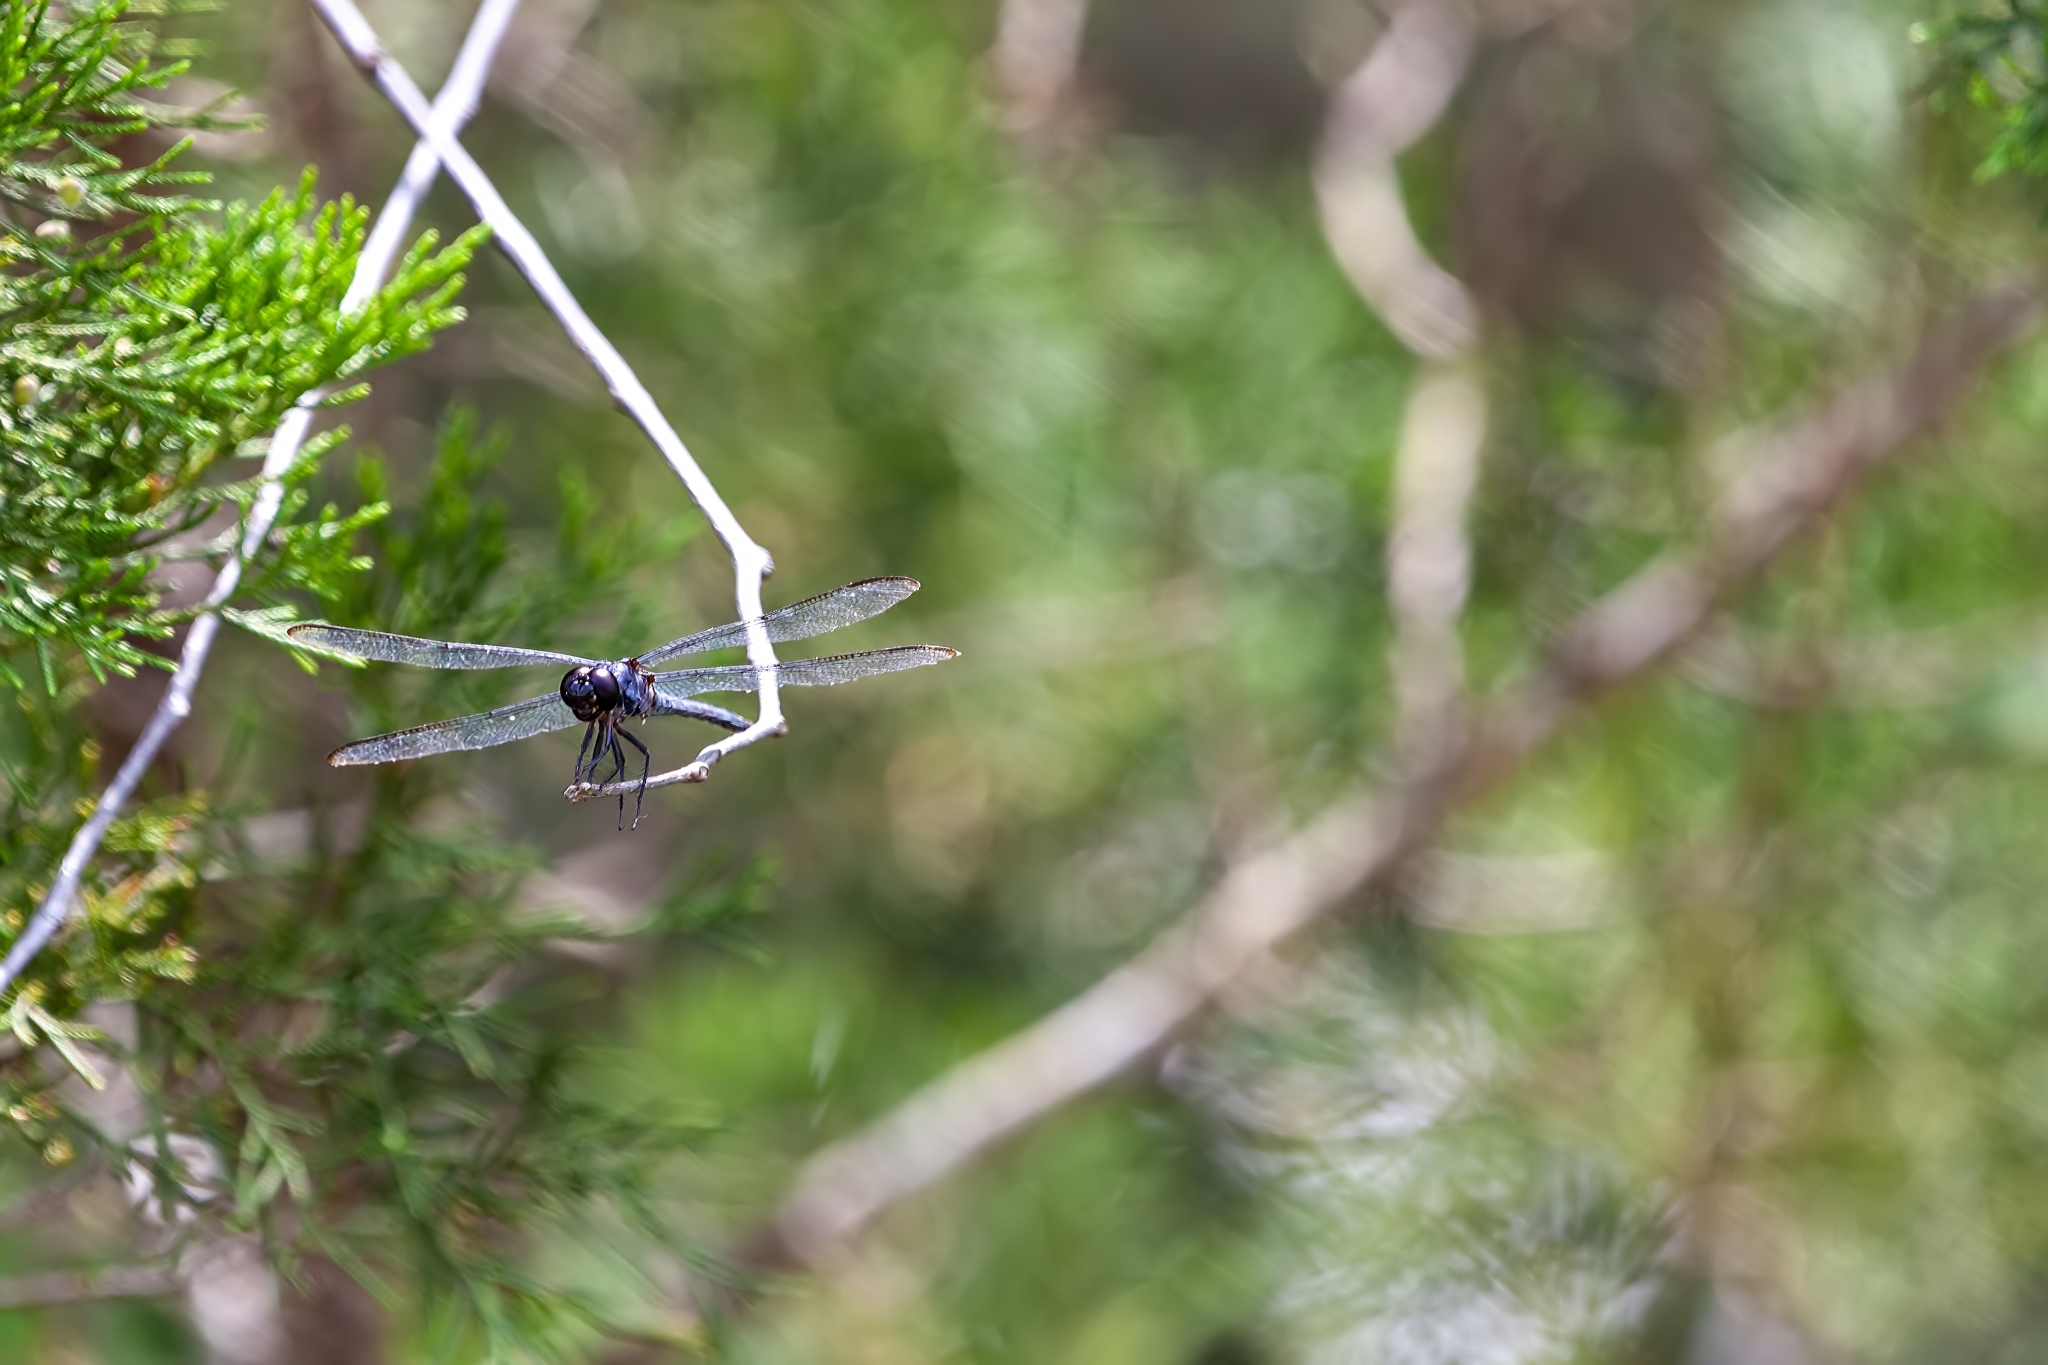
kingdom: Animalia
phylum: Arthropoda
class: Insecta
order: Odonata
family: Libellulidae
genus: Libellula
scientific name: Libellula incesta
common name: Slaty skimmer
